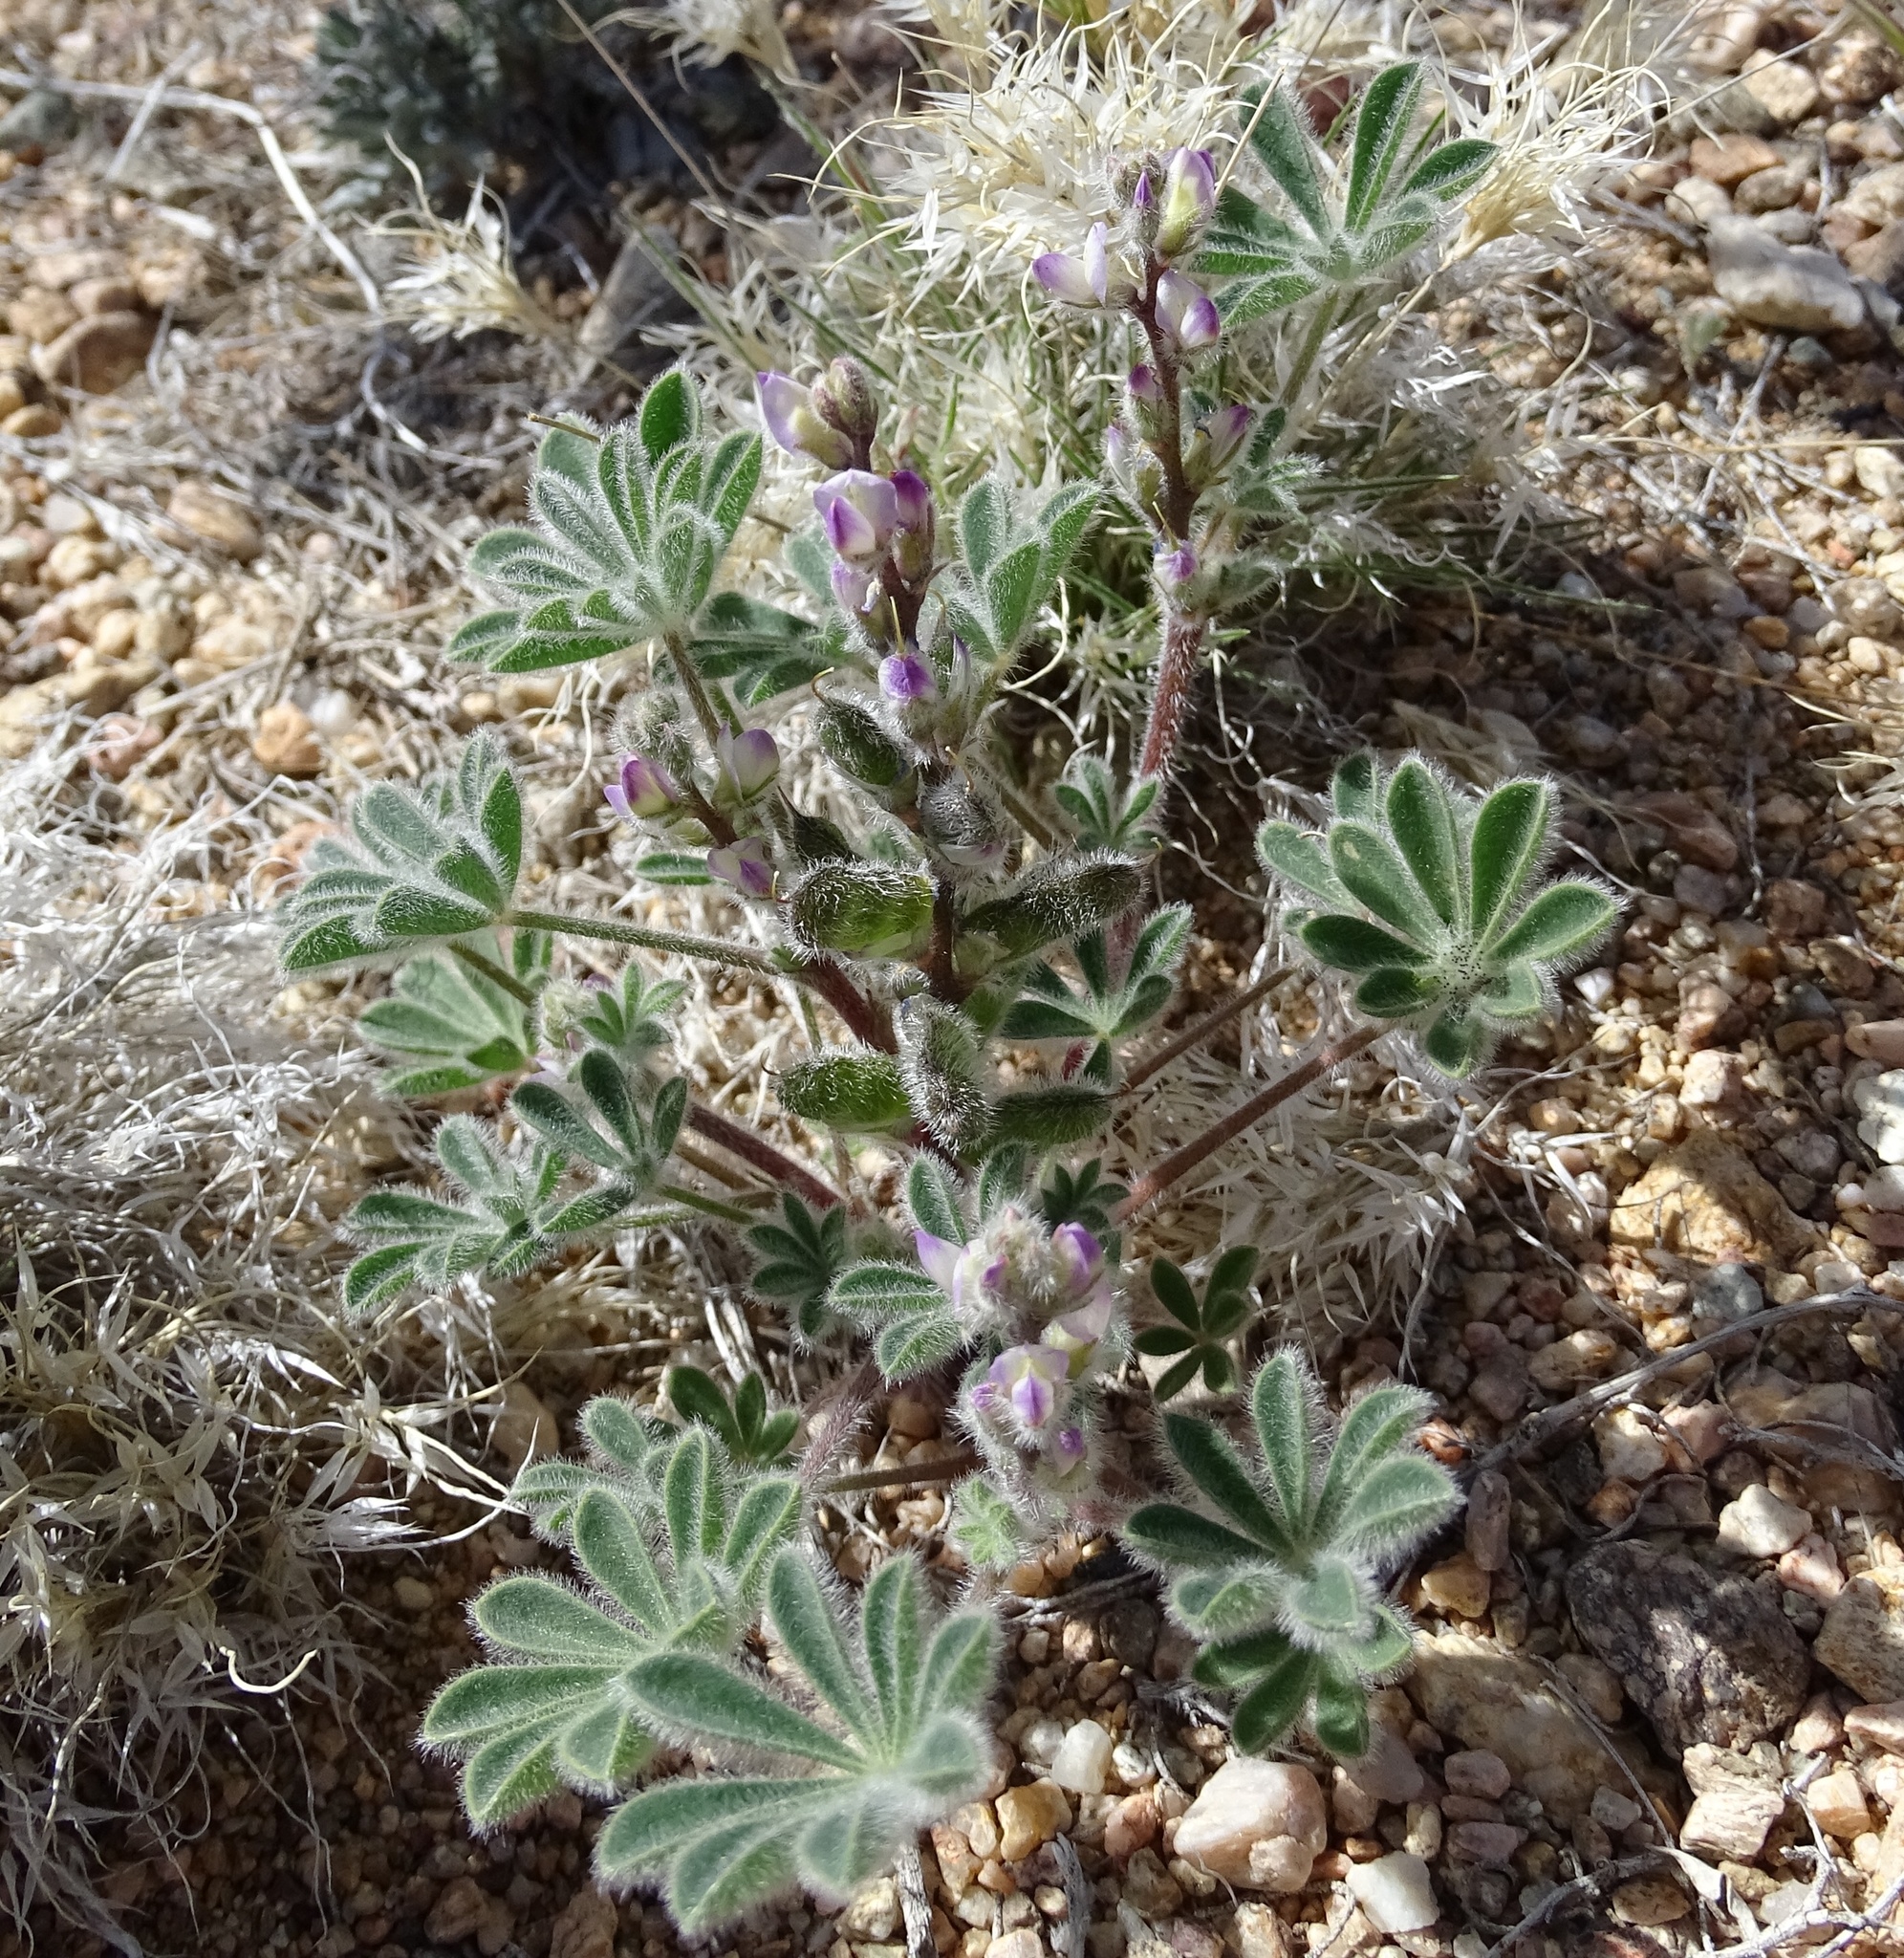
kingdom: Plantae
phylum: Tracheophyta
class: Magnoliopsida
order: Fabales
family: Fabaceae
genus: Lupinus
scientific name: Lupinus concinnus
